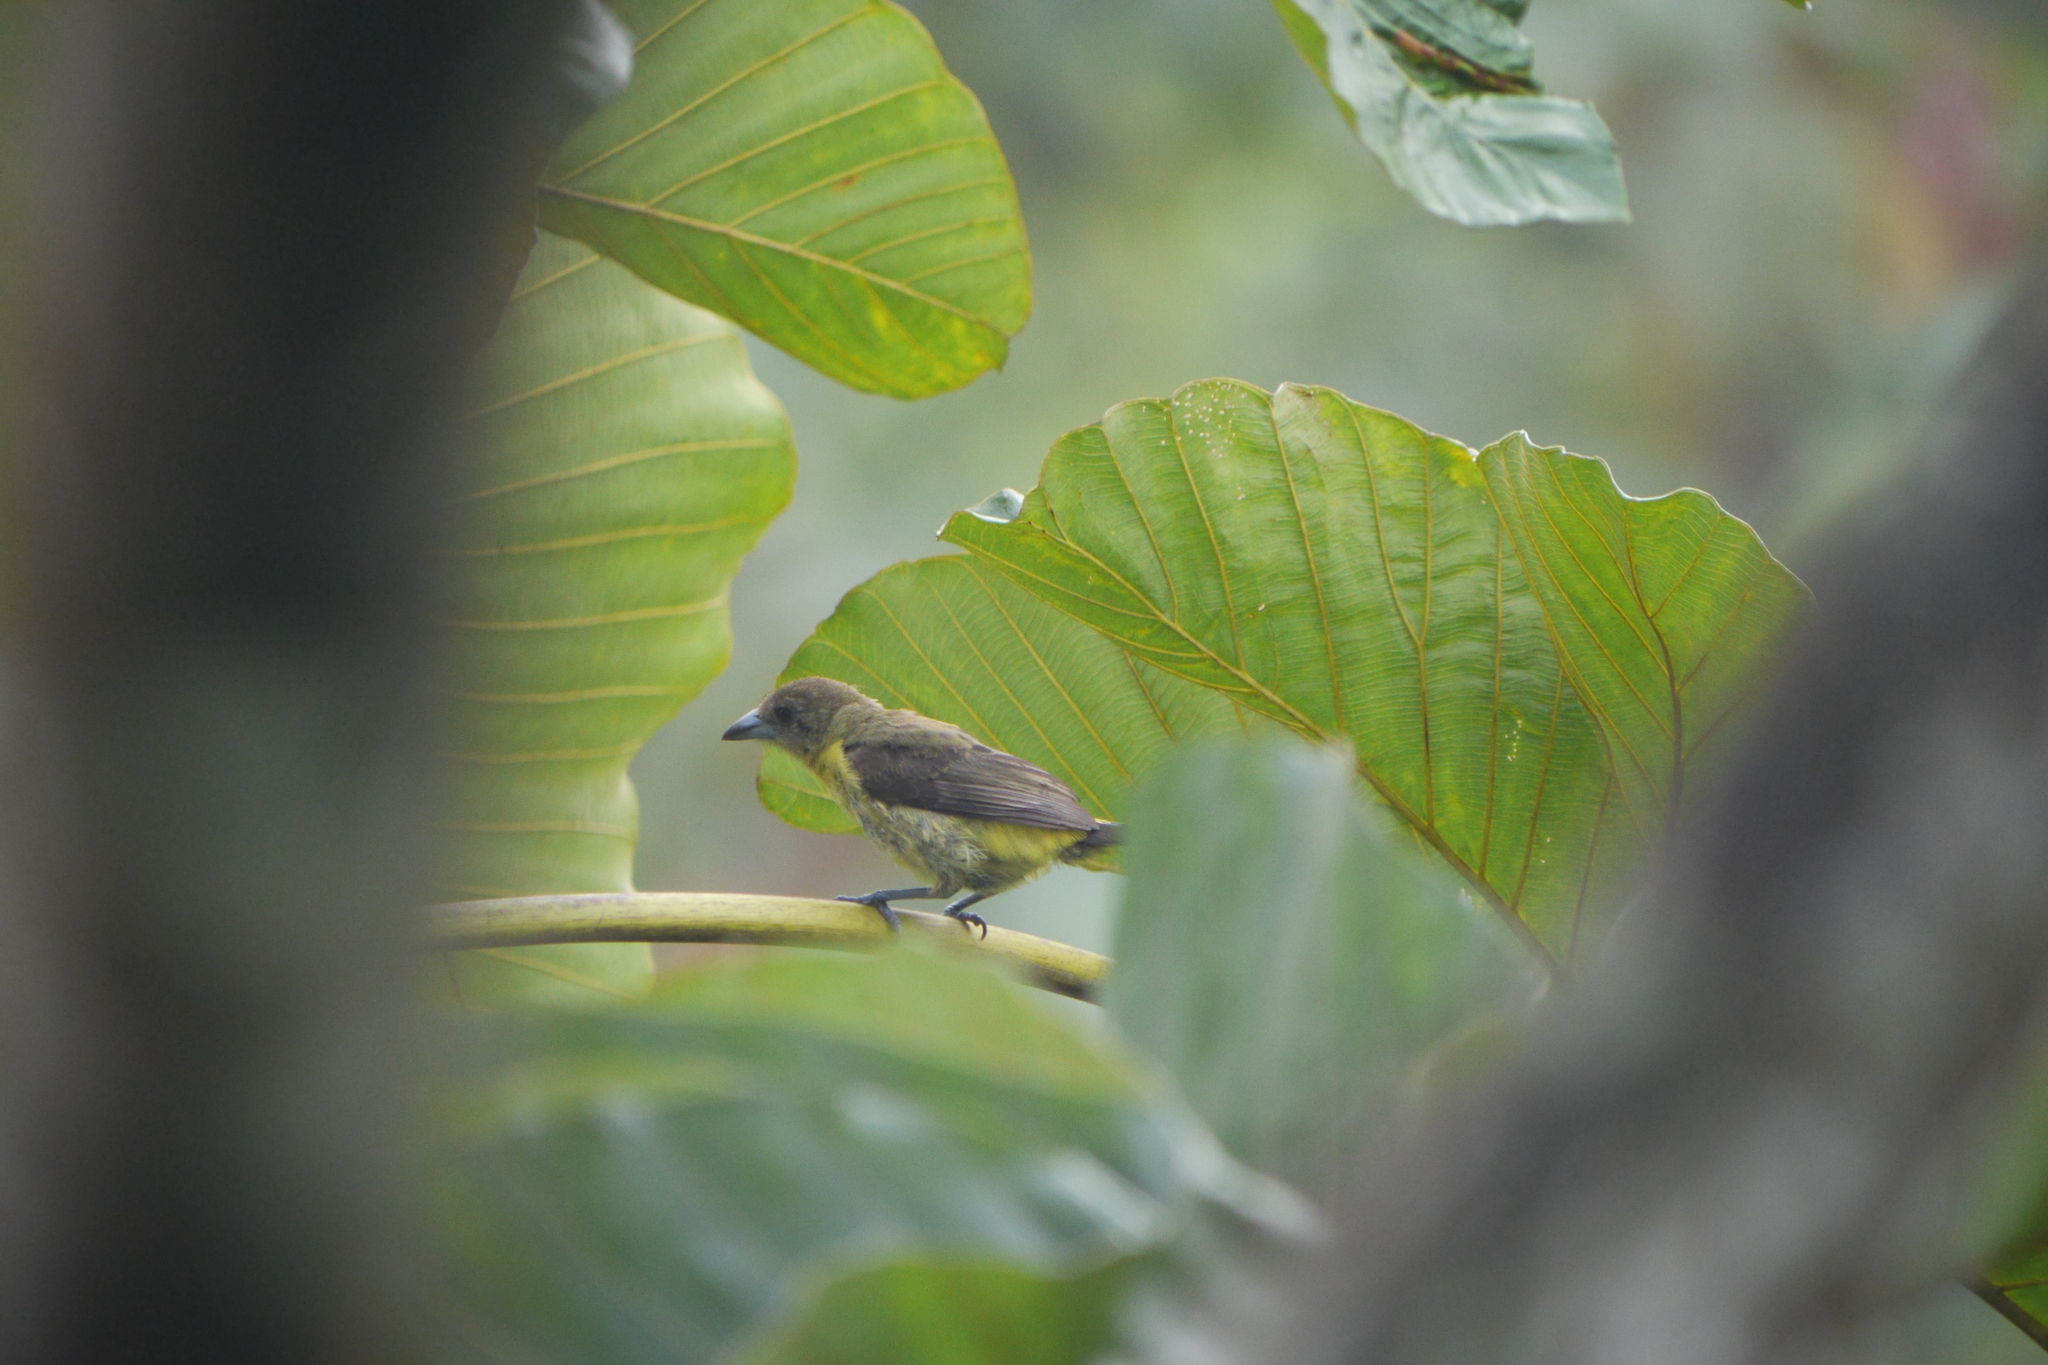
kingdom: Animalia
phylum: Chordata
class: Aves
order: Passeriformes
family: Thraupidae
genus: Ramphocelus
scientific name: Ramphocelus icteronotus
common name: Lemon-rumped tanager
